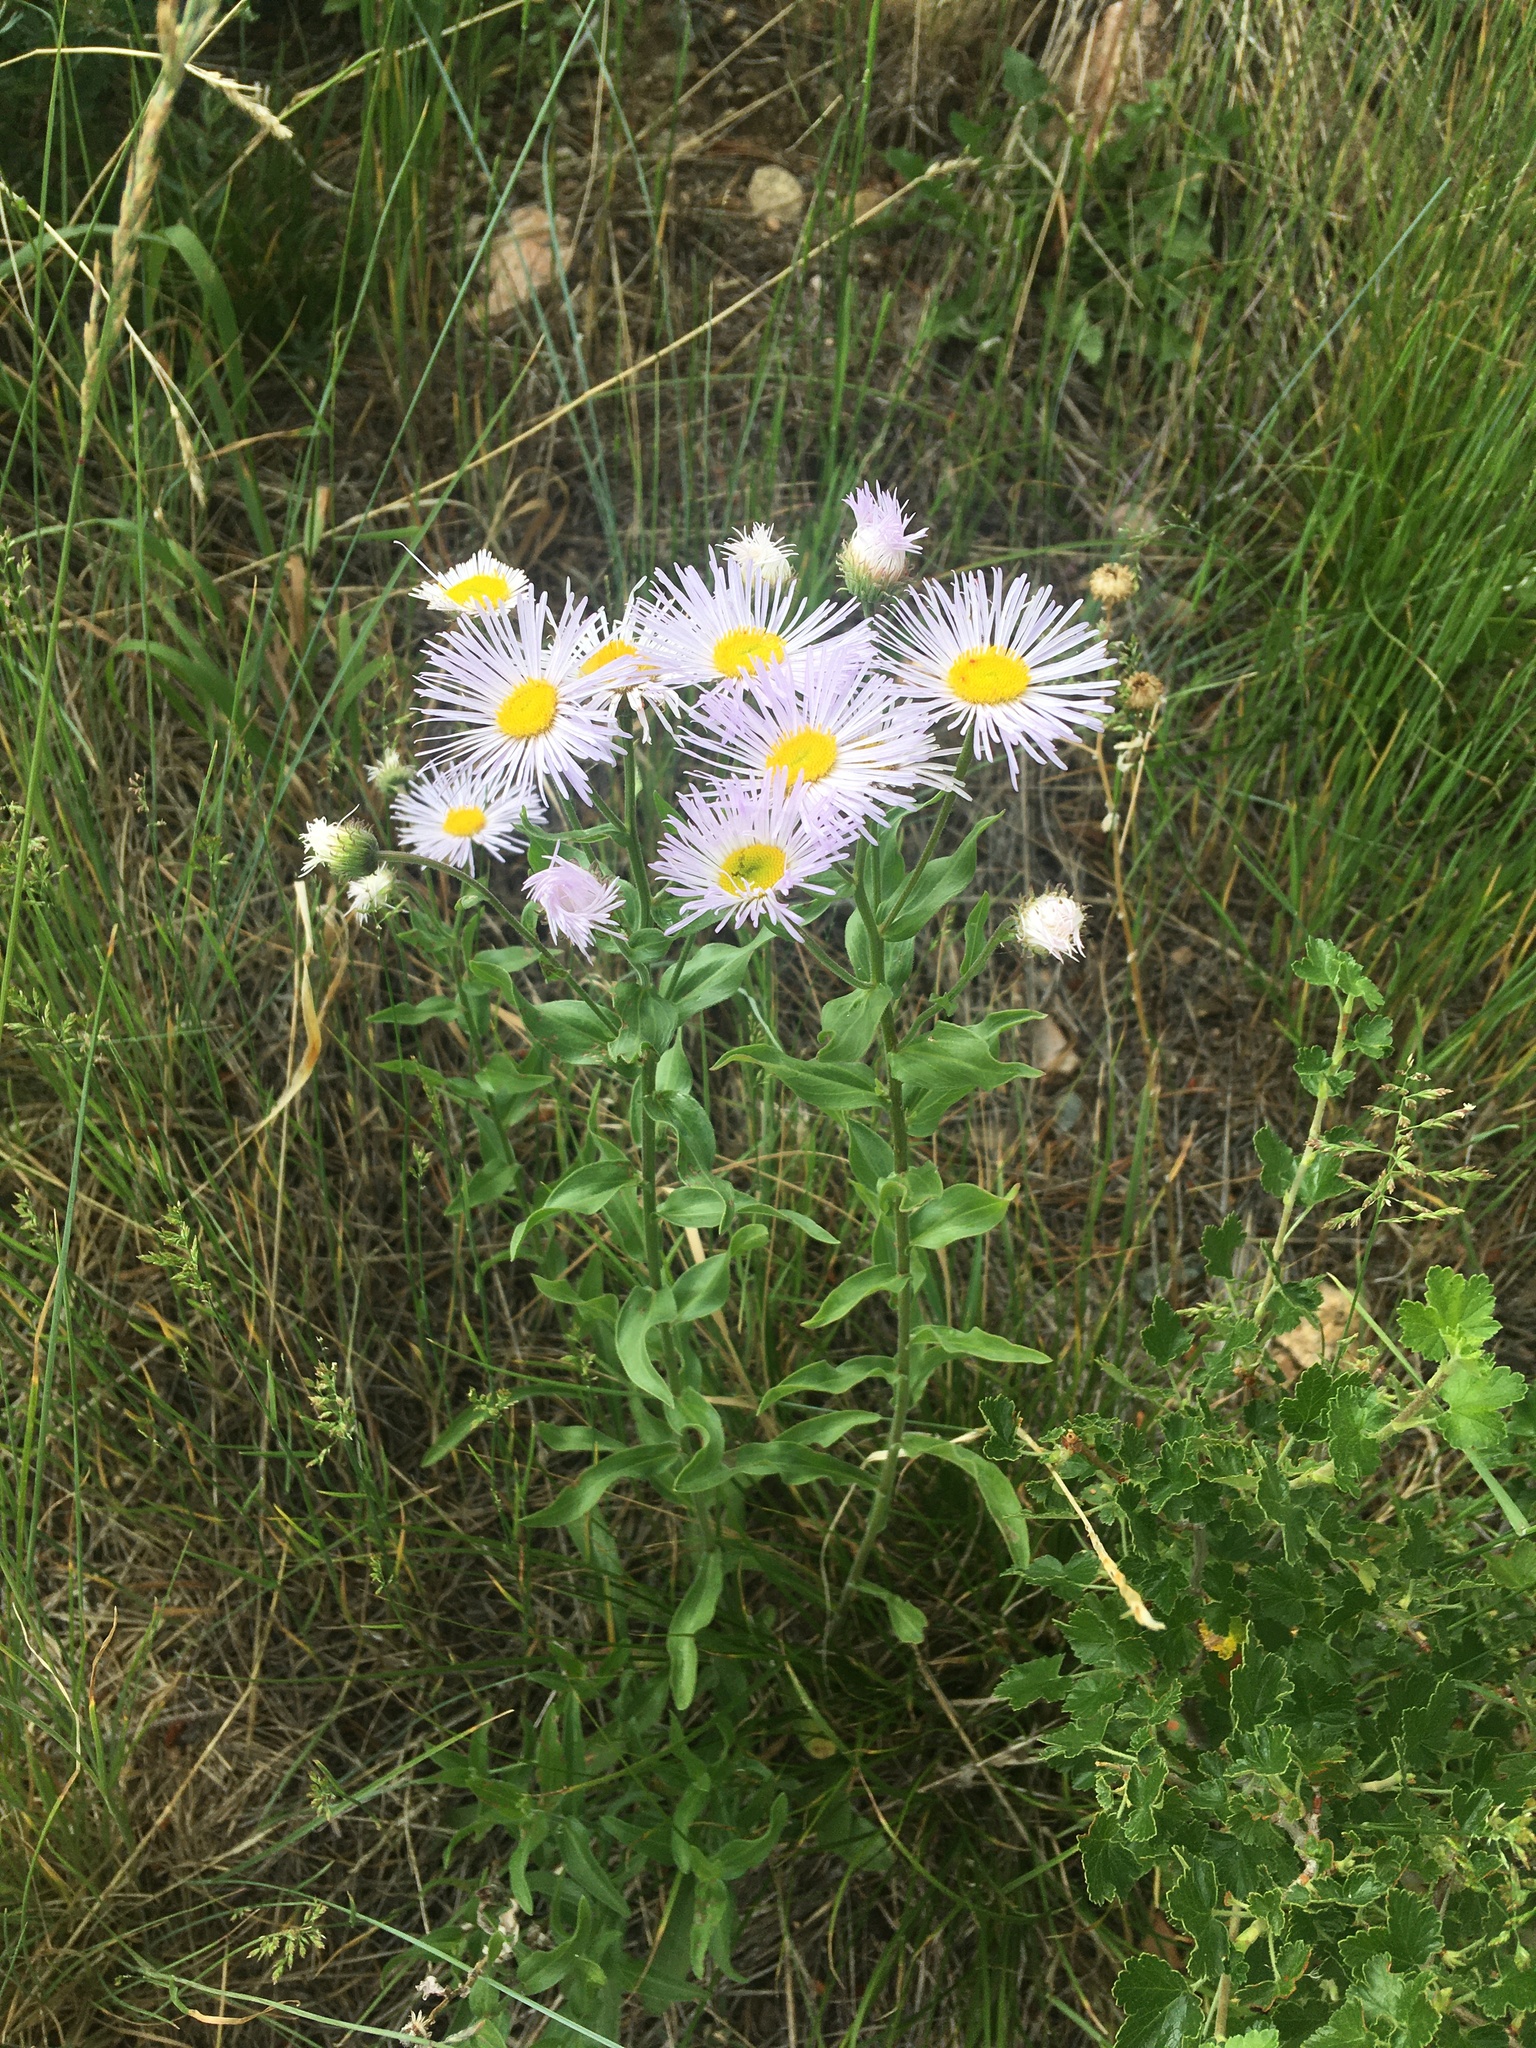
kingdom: Plantae
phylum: Tracheophyta
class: Magnoliopsida
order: Asterales
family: Asteraceae
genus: Erigeron
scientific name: Erigeron speciosus
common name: Aspen fleabane
